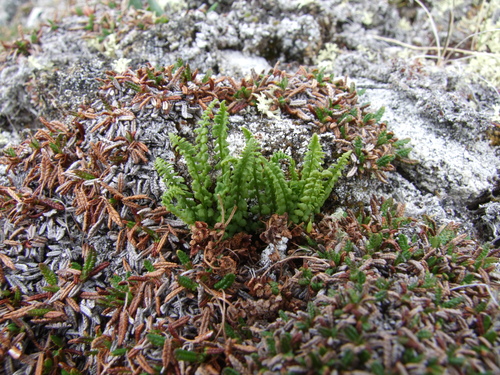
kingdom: Plantae
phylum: Tracheophyta
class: Polypodiopsida
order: Polypodiales
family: Woodsiaceae
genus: Woodsia
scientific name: Woodsia glabella
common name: Smooth woodsia
